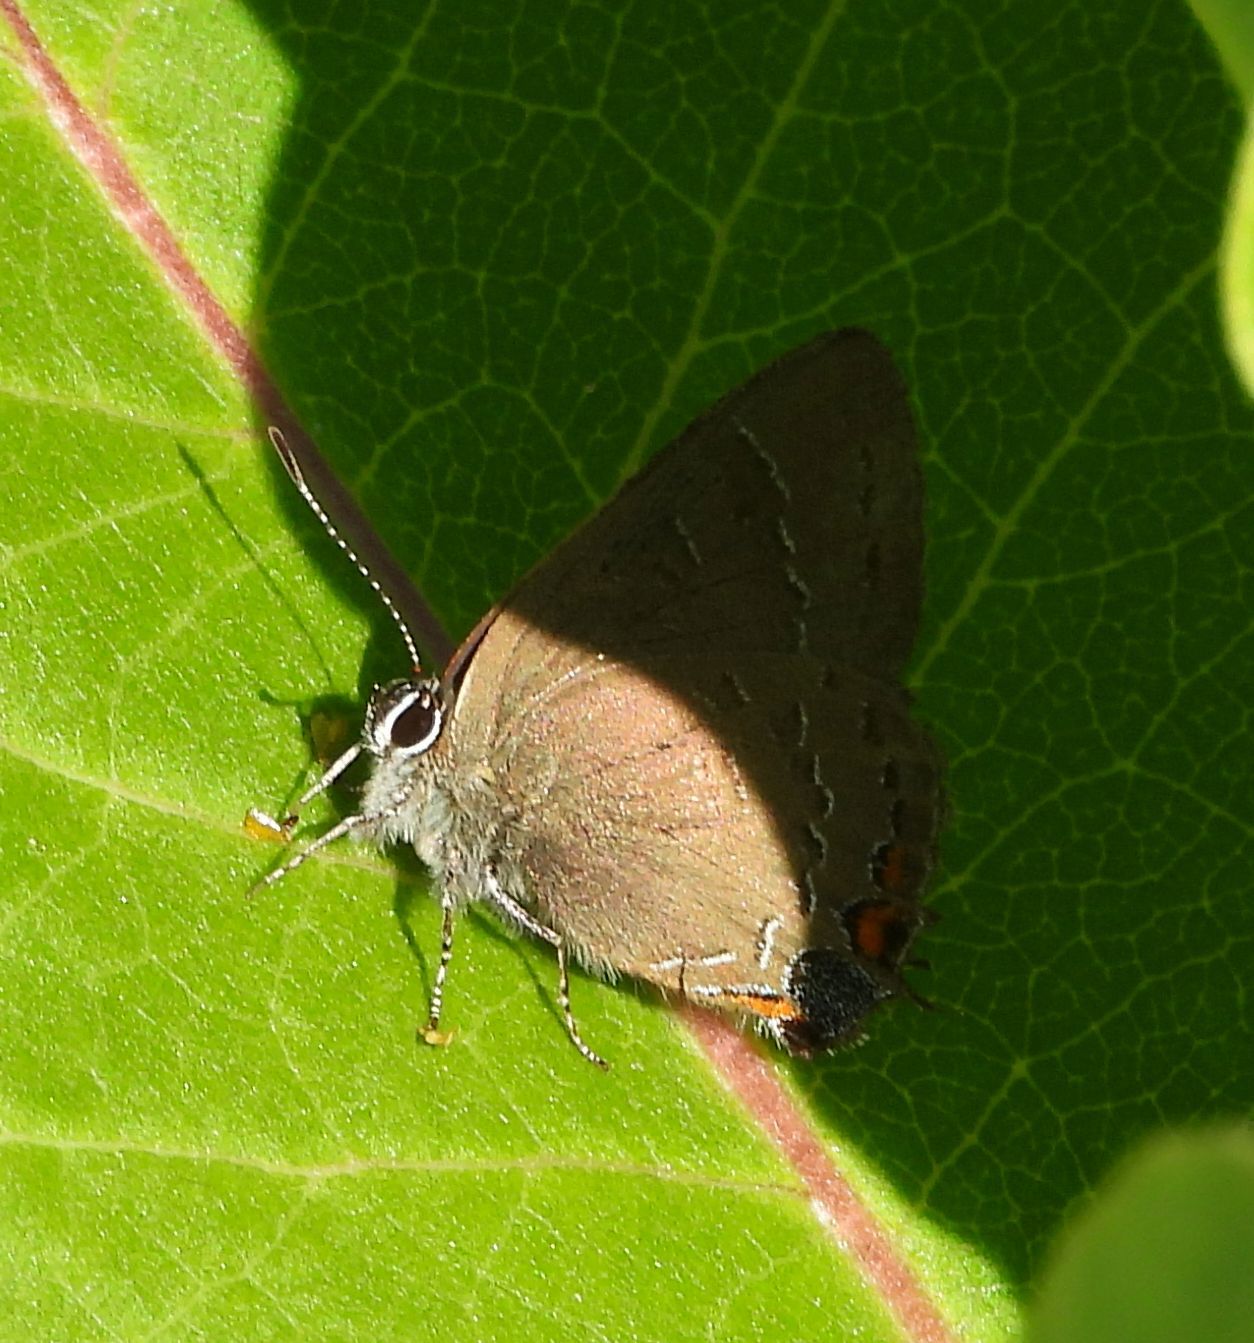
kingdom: Animalia
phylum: Arthropoda
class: Insecta
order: Lepidoptera
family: Lycaenidae
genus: Satyrium
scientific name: Satyrium calanus
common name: Banded hairstreak
